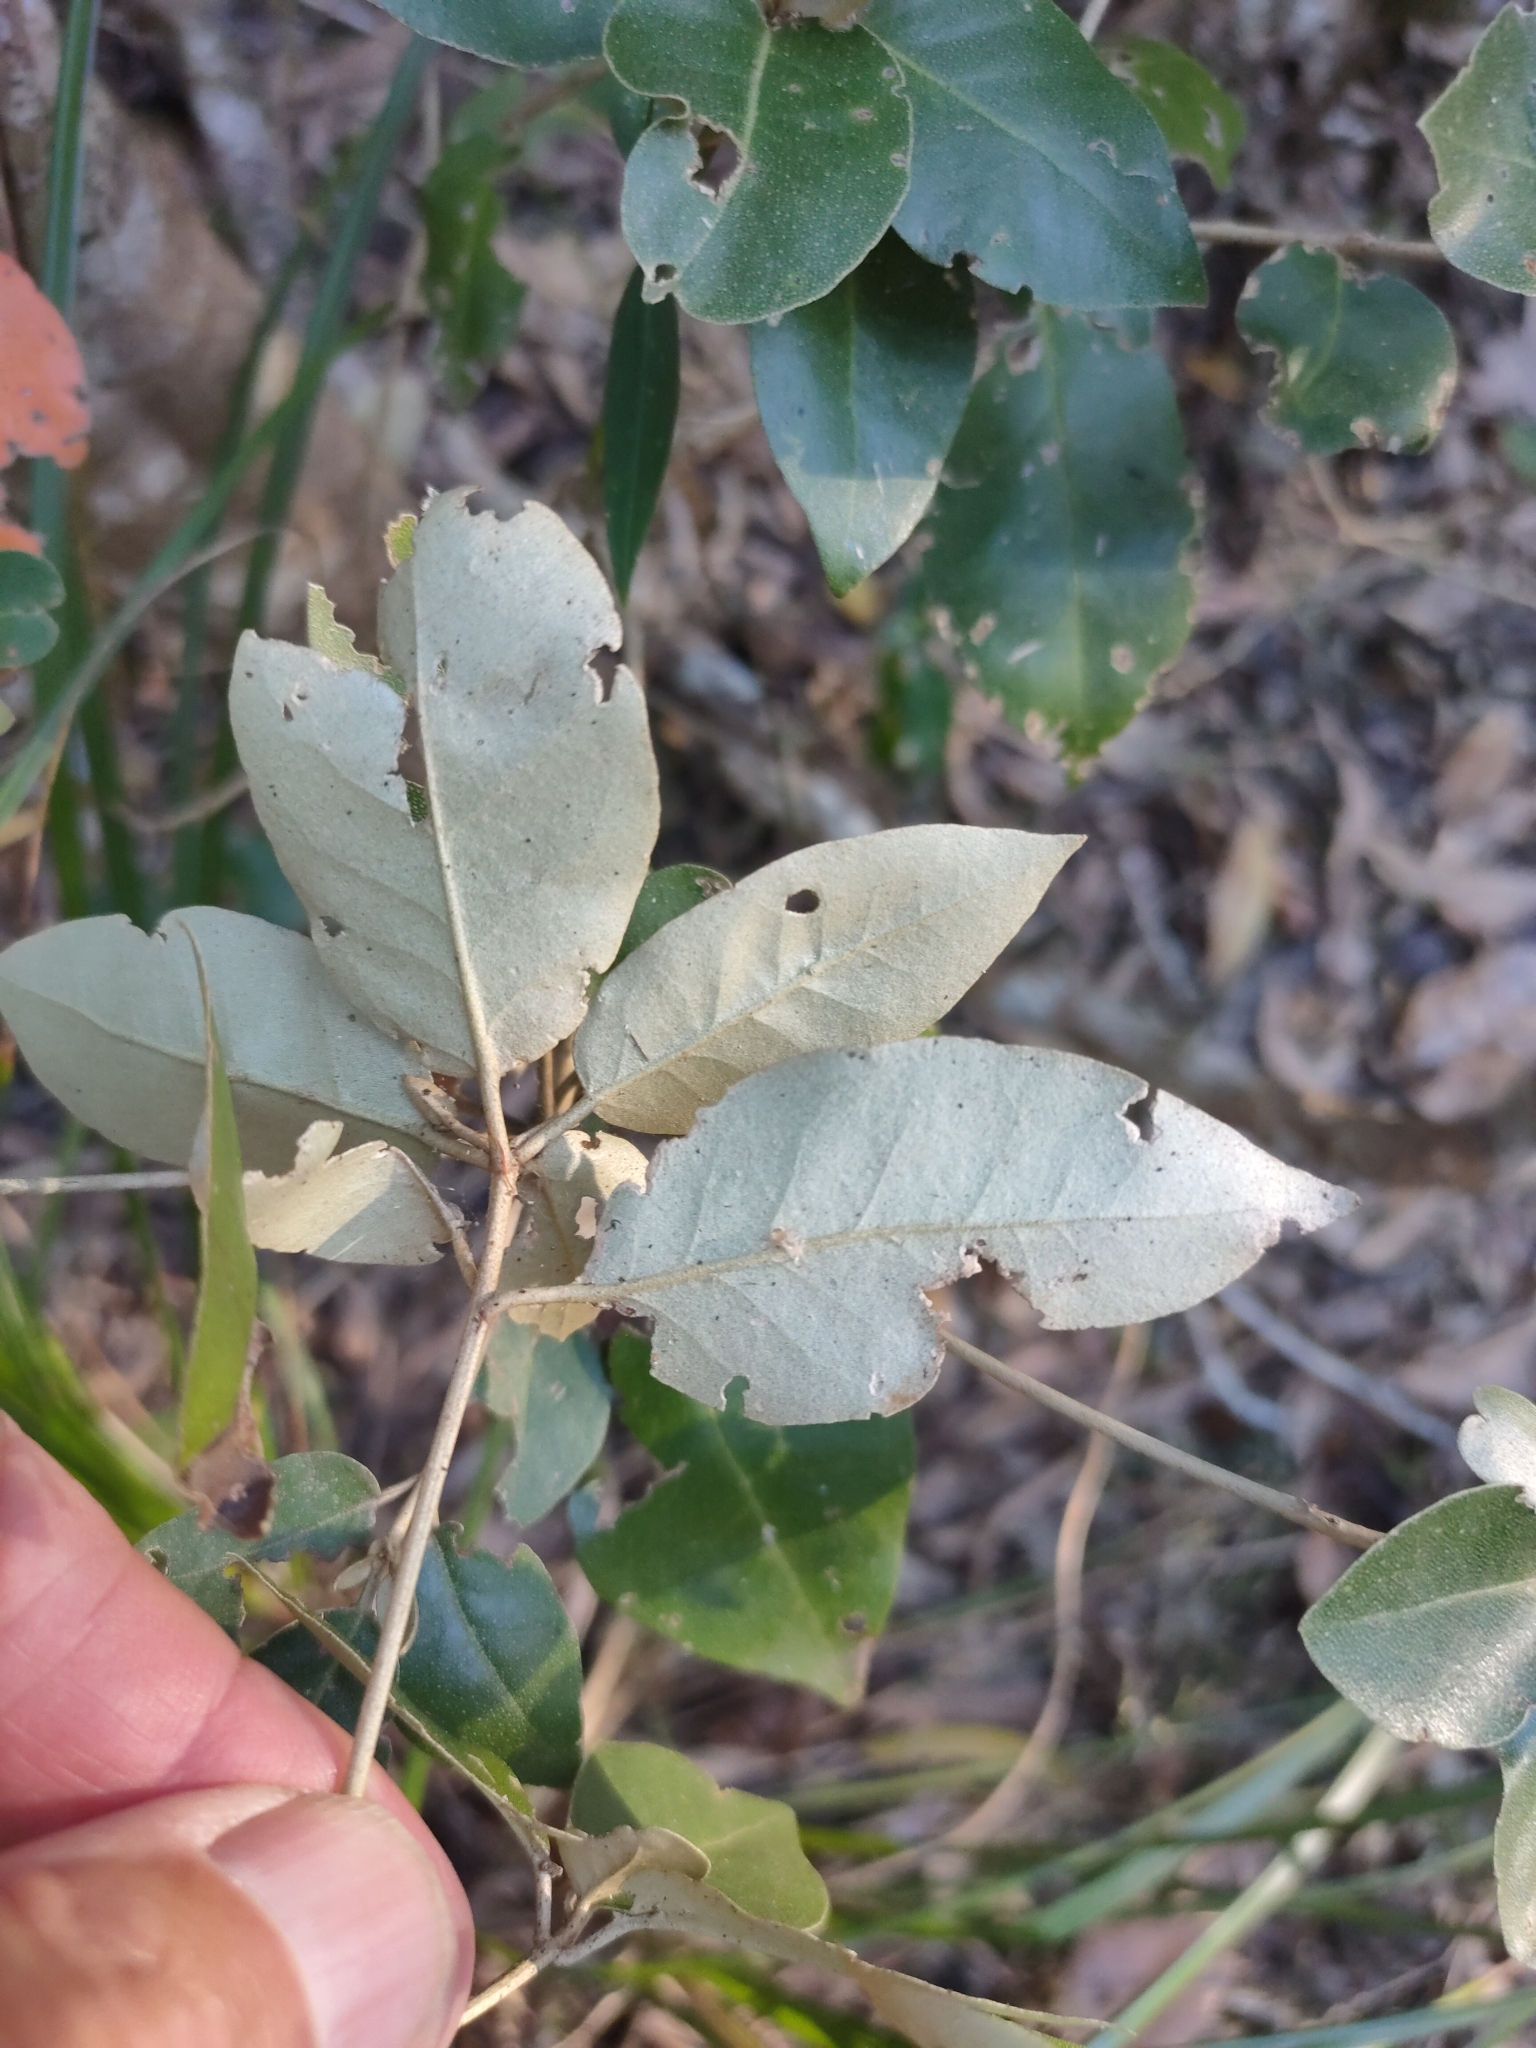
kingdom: Plantae
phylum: Tracheophyta
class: Magnoliopsida
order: Malpighiales
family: Euphorbiaceae
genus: Croton
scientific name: Croton insularis
